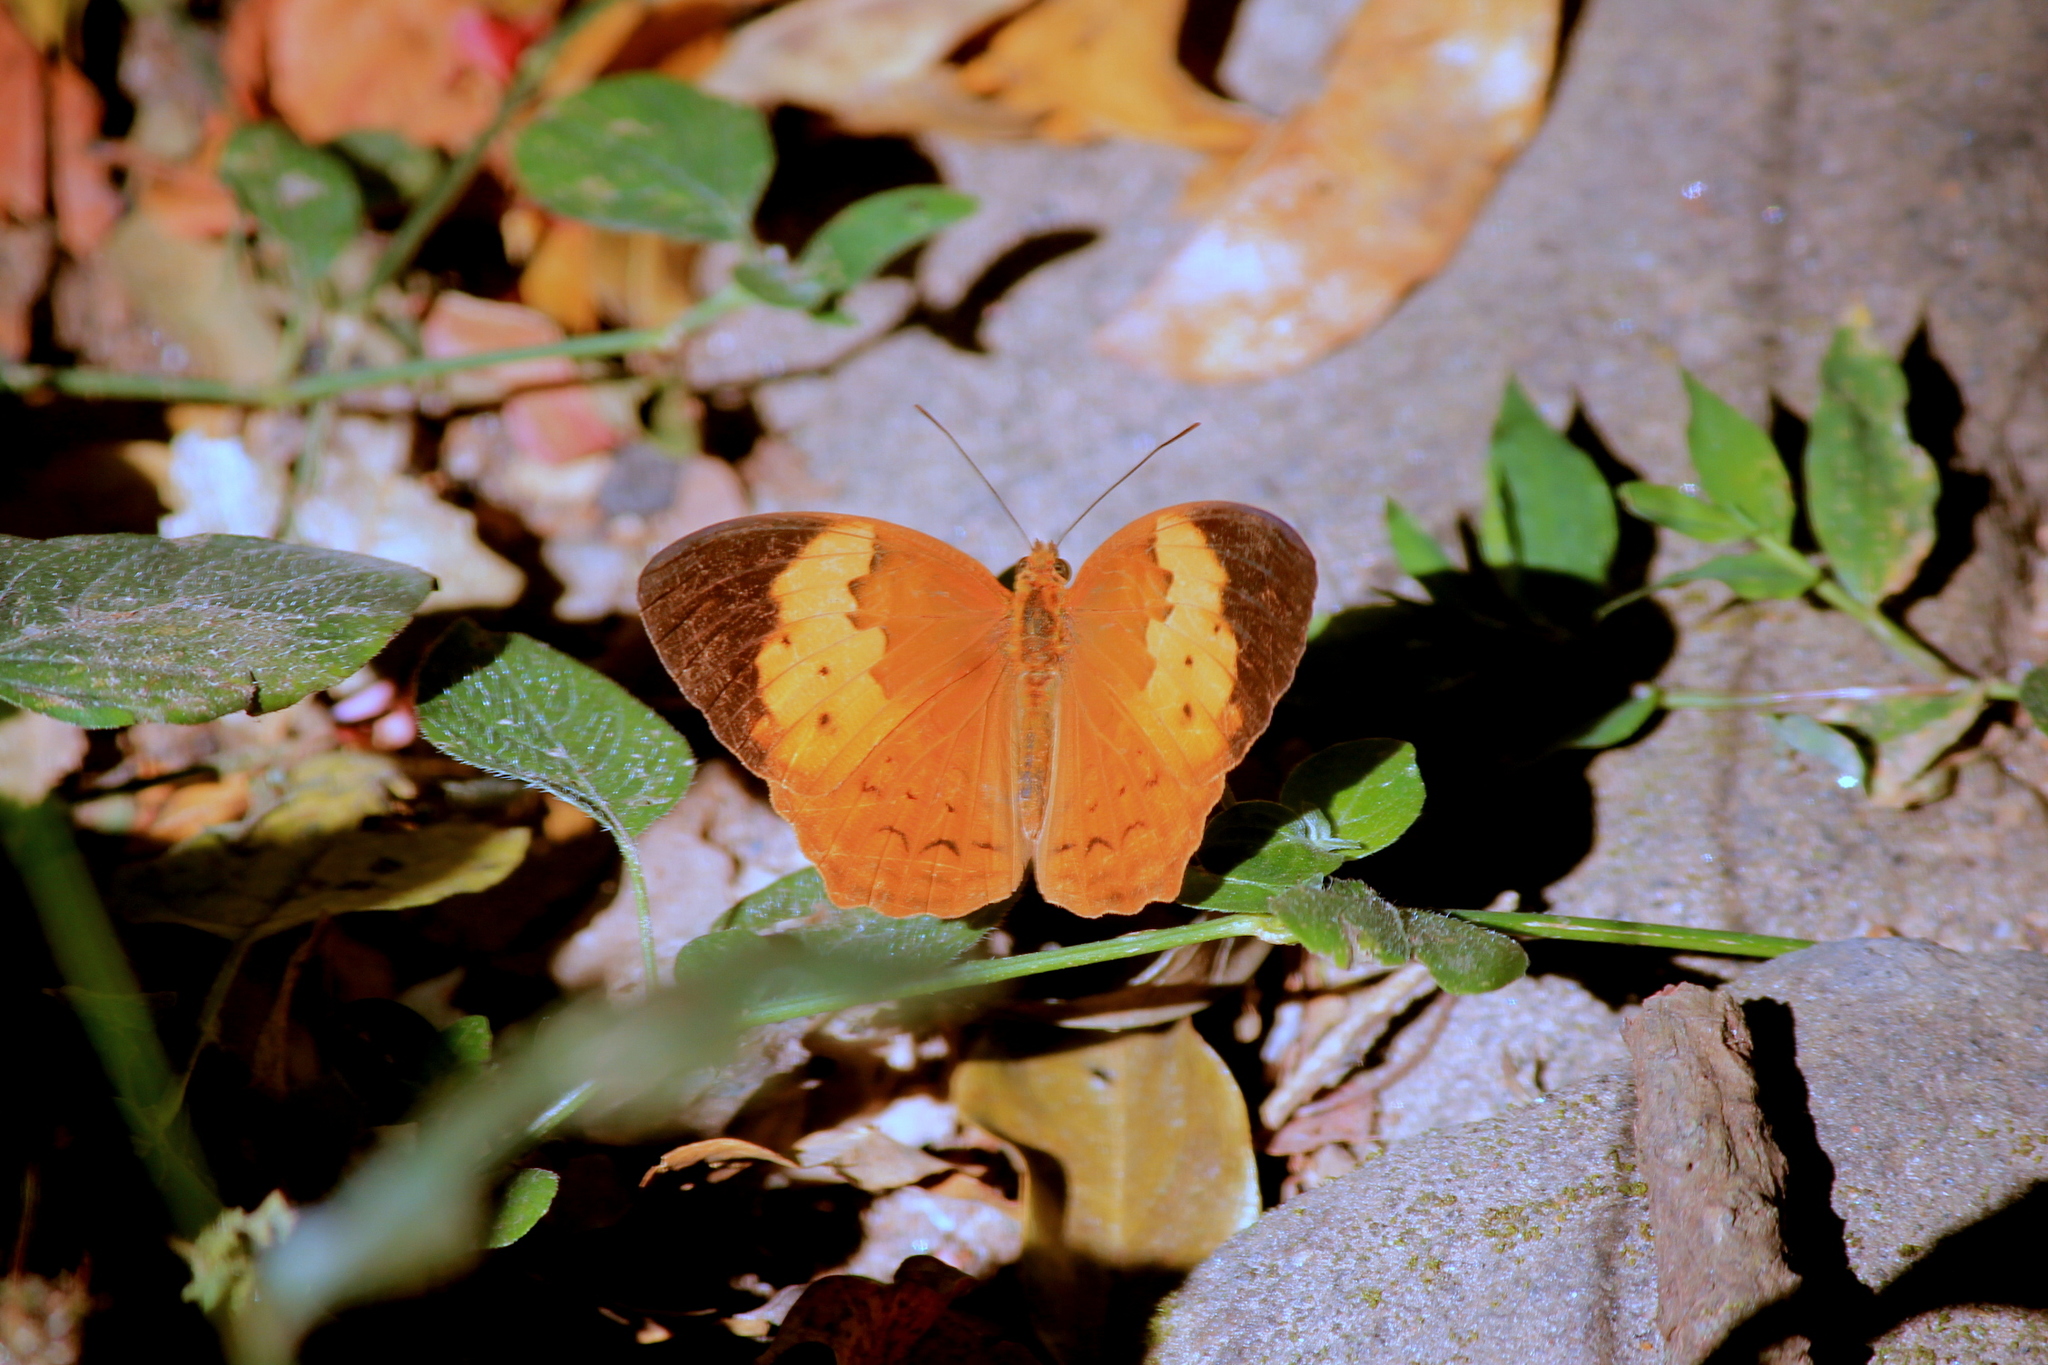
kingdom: Animalia
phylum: Arthropoda
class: Insecta
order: Lepidoptera
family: Nymphalidae
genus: Cupha
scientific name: Cupha erymanthis
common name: Rustic
